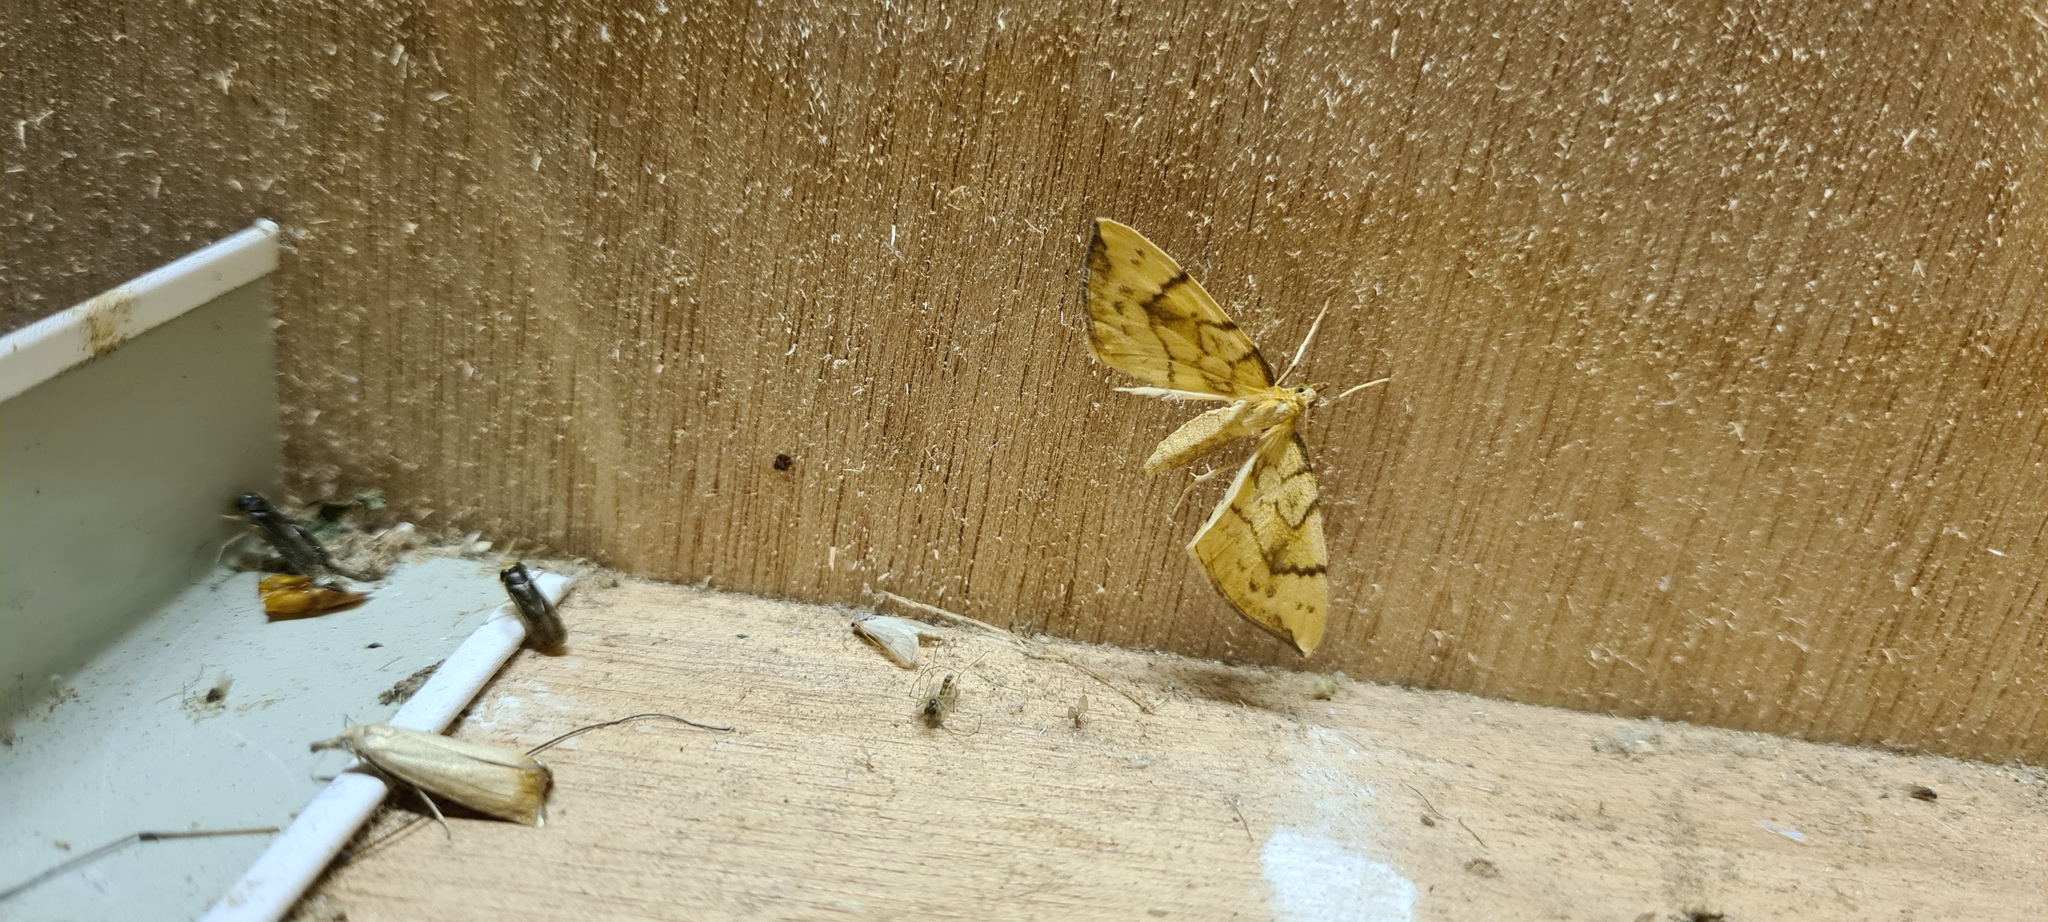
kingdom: Animalia
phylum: Arthropoda
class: Insecta
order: Lepidoptera
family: Geometridae
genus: Eulithis
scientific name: Eulithis pyraliata
